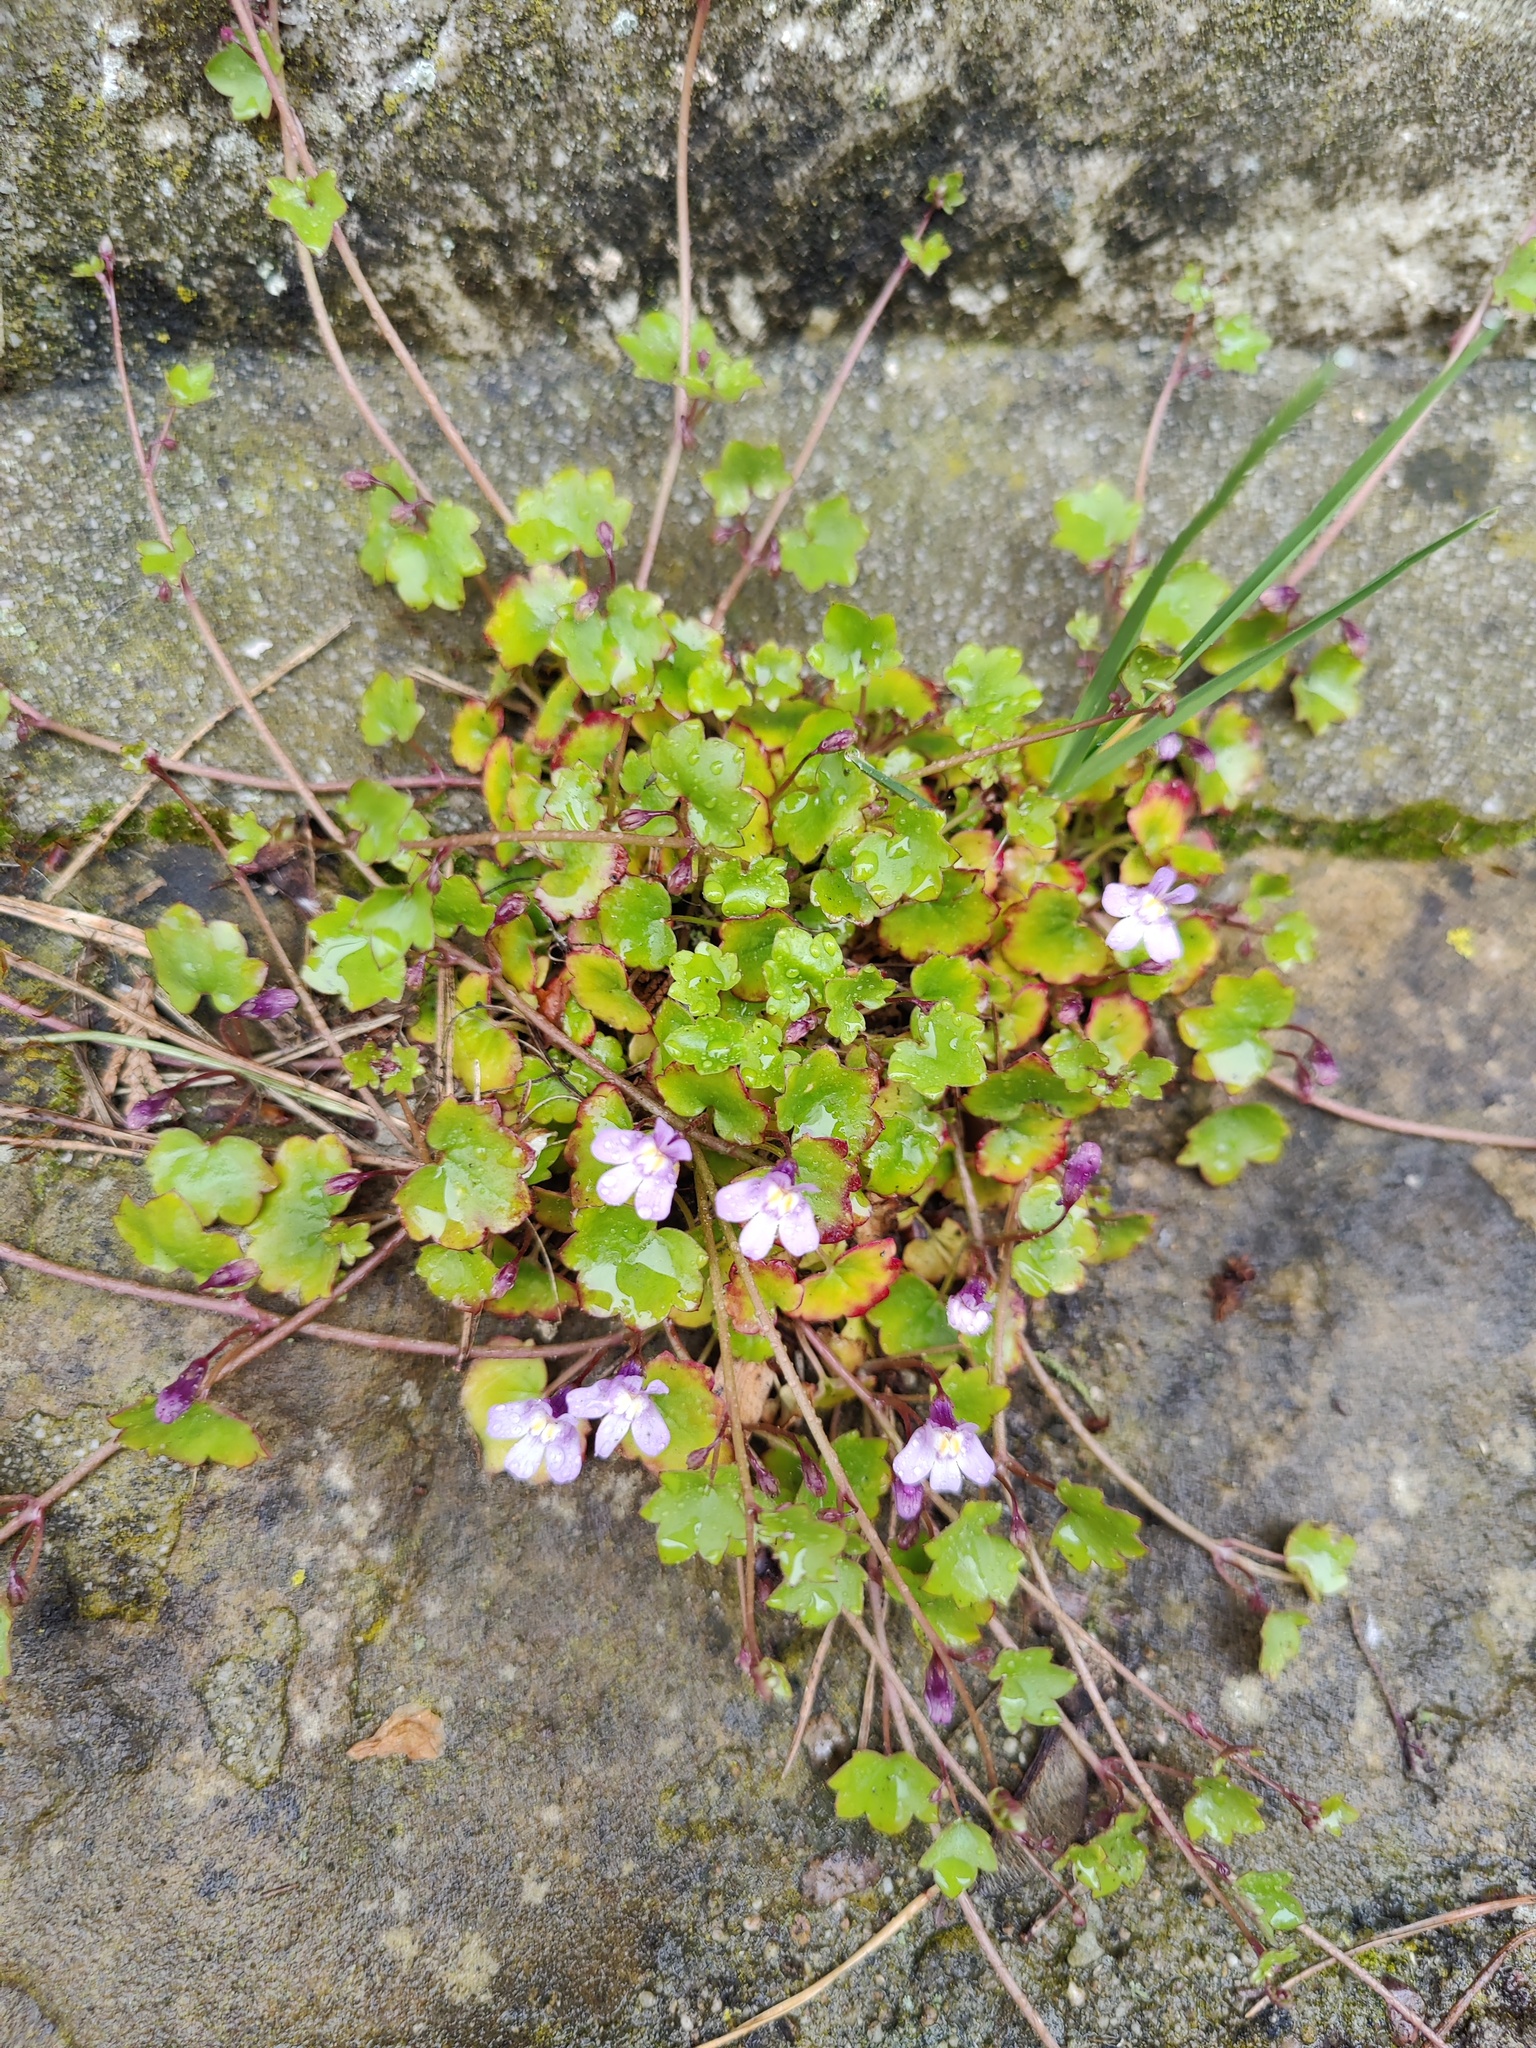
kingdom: Plantae
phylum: Tracheophyta
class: Magnoliopsida
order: Lamiales
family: Plantaginaceae
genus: Cymbalaria
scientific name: Cymbalaria muralis
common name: Ivy-leaved toadflax
